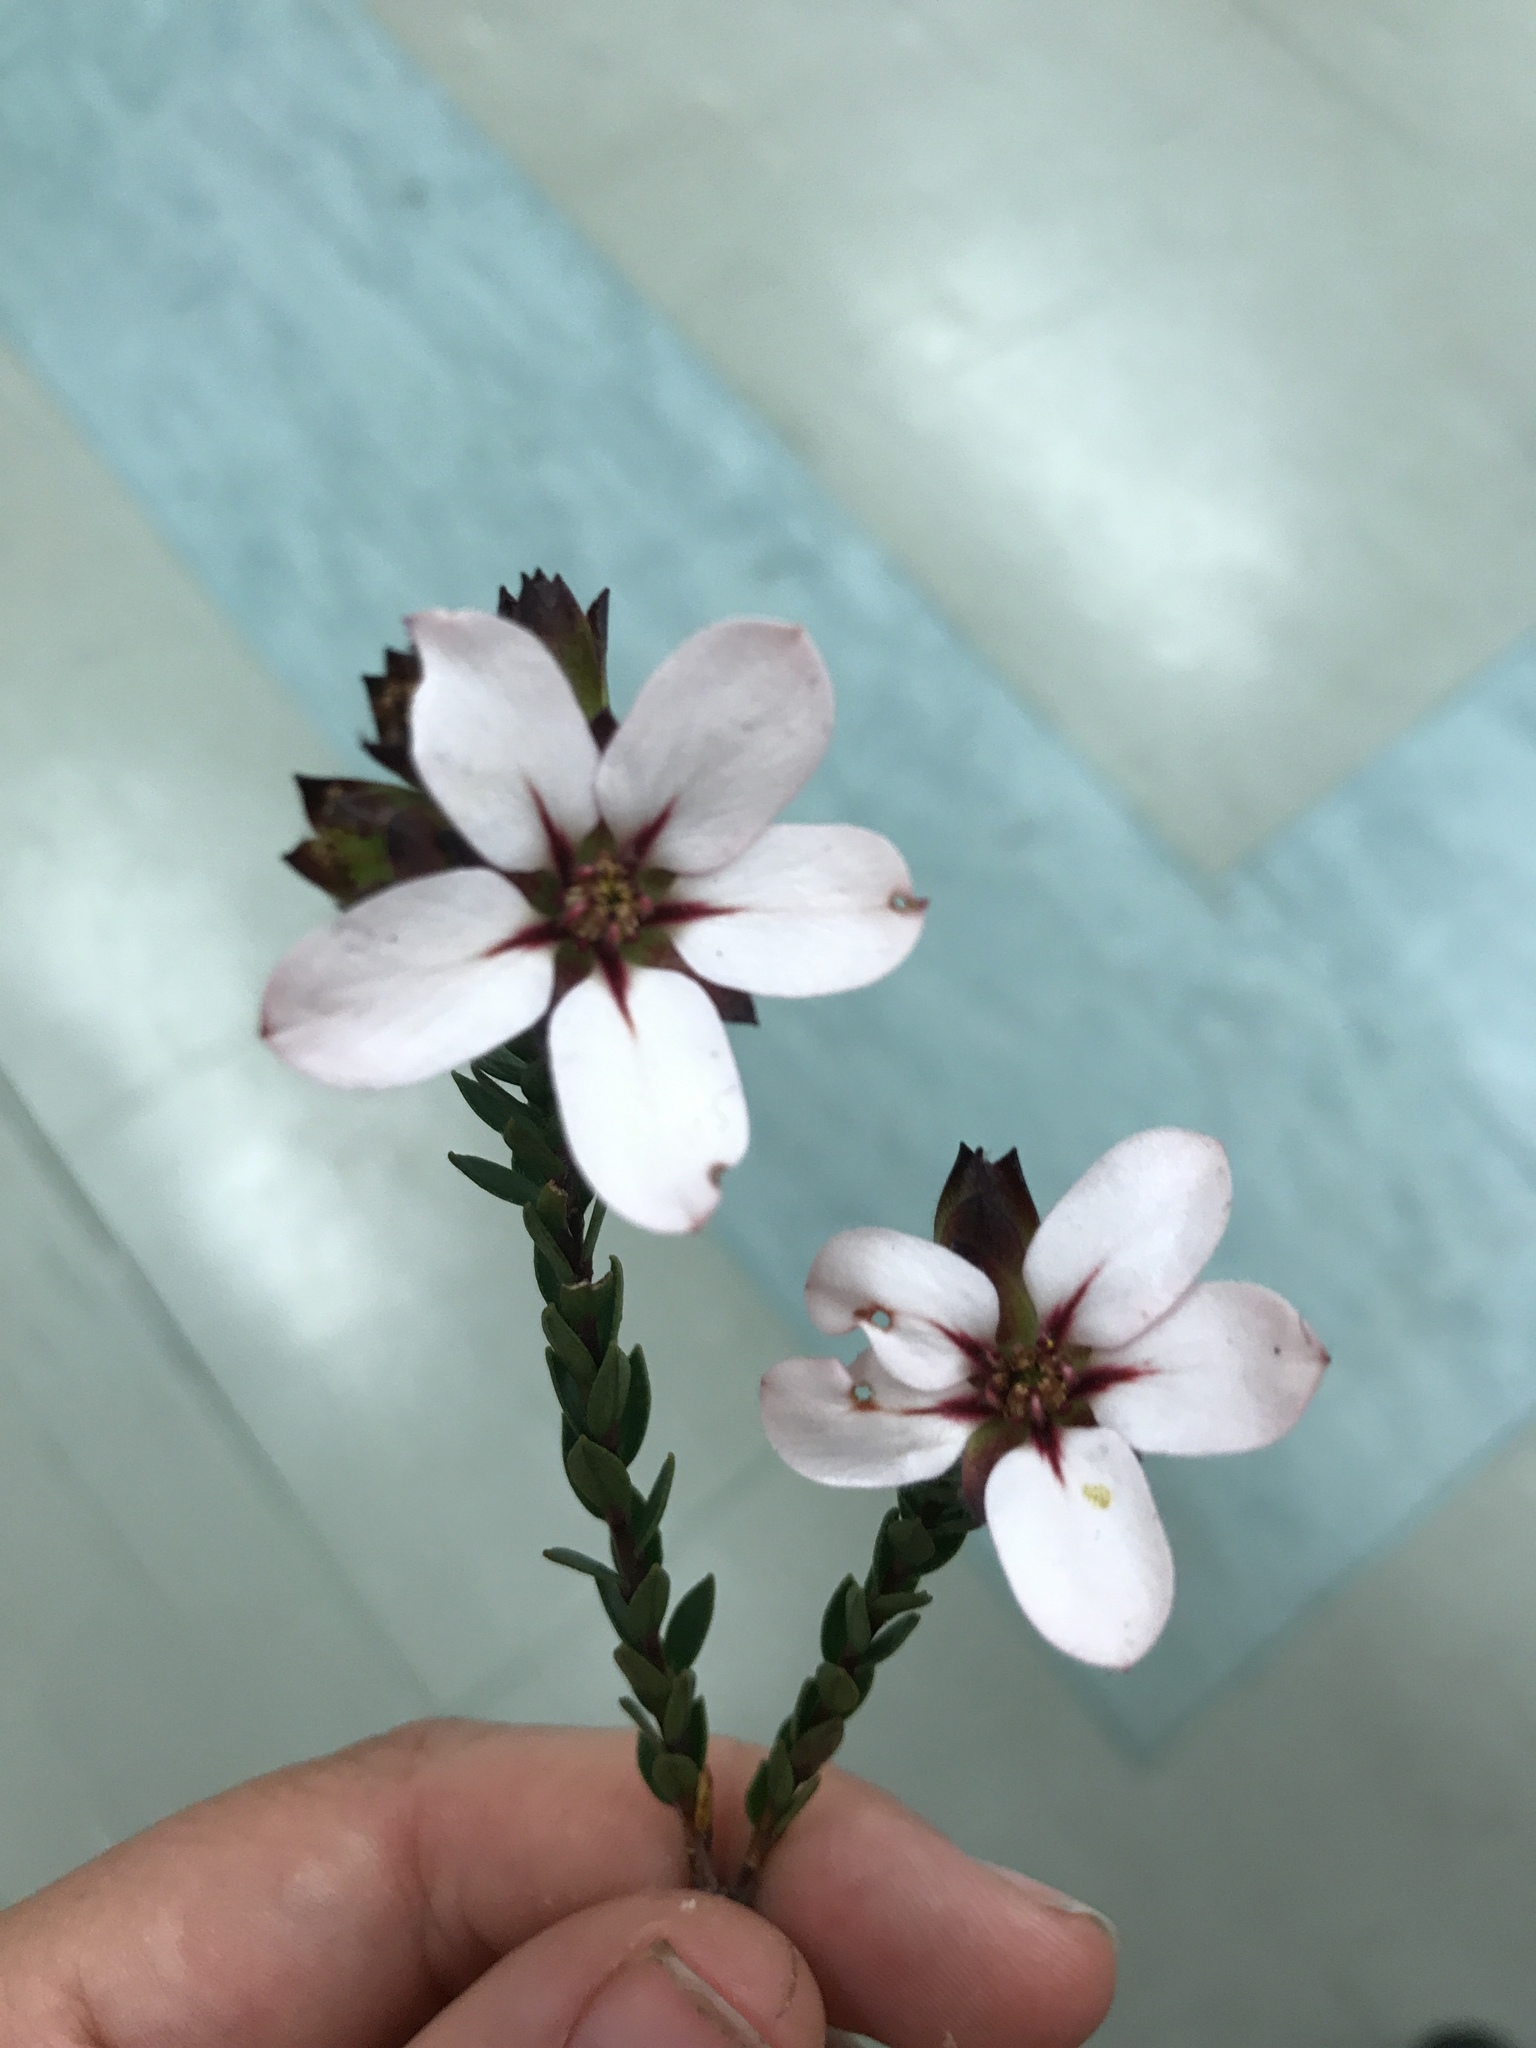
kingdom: Plantae
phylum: Tracheophyta
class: Magnoliopsida
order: Sapindales
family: Rutaceae
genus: Adenandra
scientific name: Adenandra villosa
